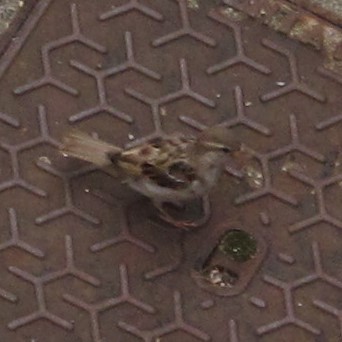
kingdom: Animalia
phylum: Chordata
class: Aves
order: Passeriformes
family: Passeridae
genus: Passer
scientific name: Passer domesticus
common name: House sparrow
